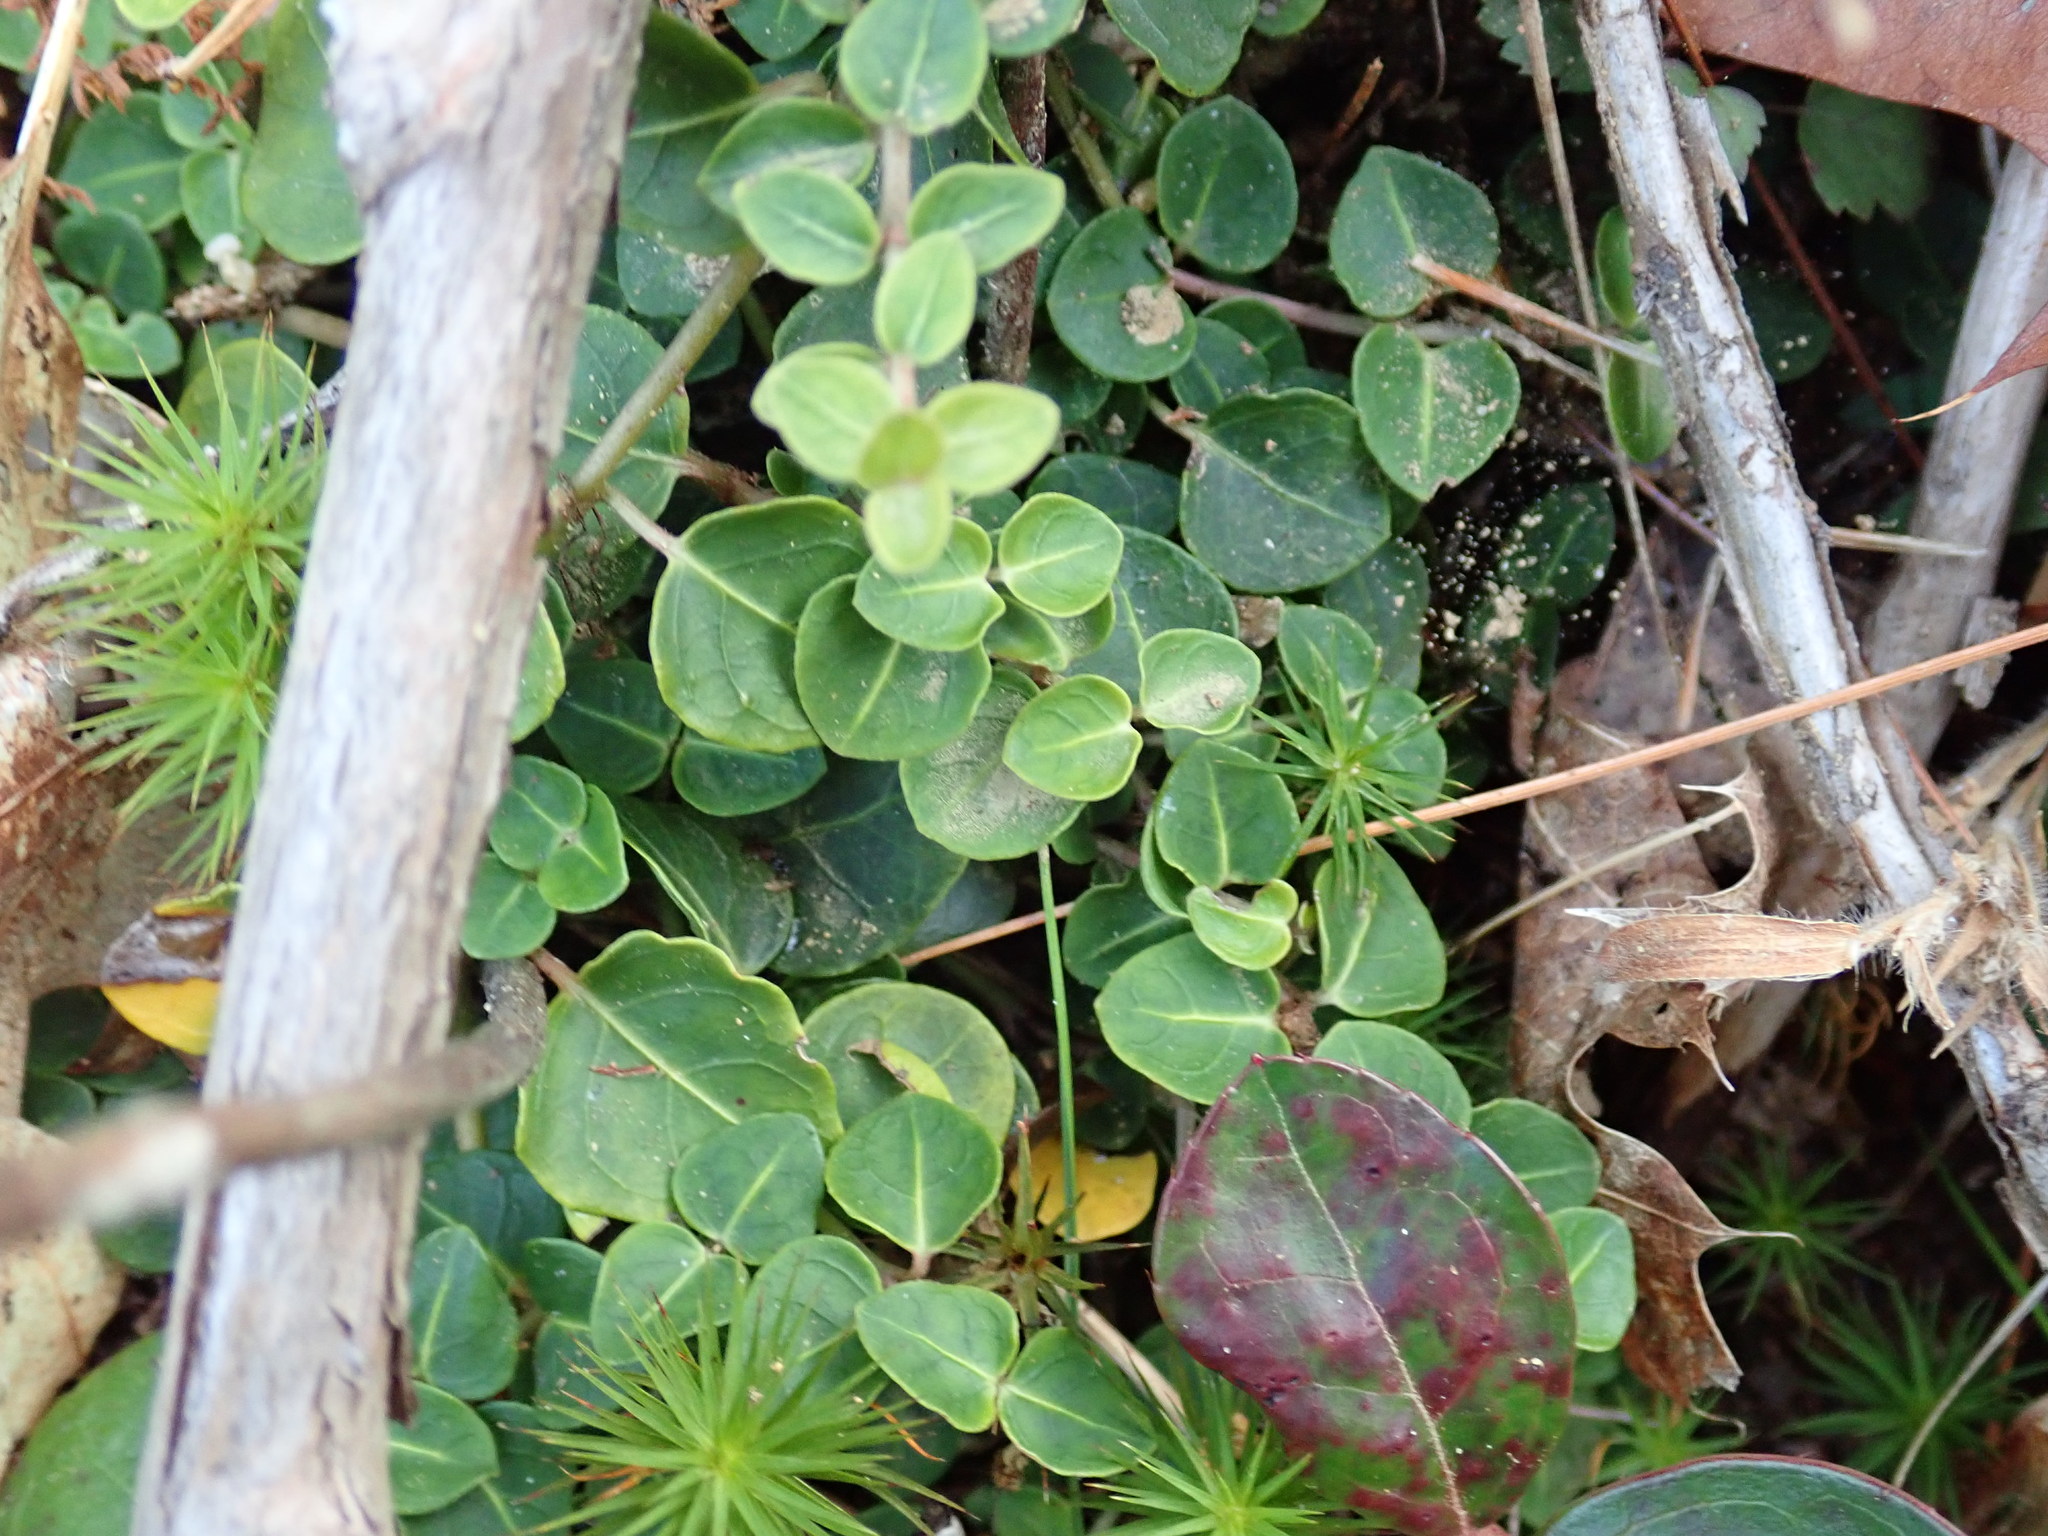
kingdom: Plantae
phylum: Tracheophyta
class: Magnoliopsida
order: Gentianales
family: Rubiaceae
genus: Mitchella
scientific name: Mitchella repens
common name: Partridge-berry
